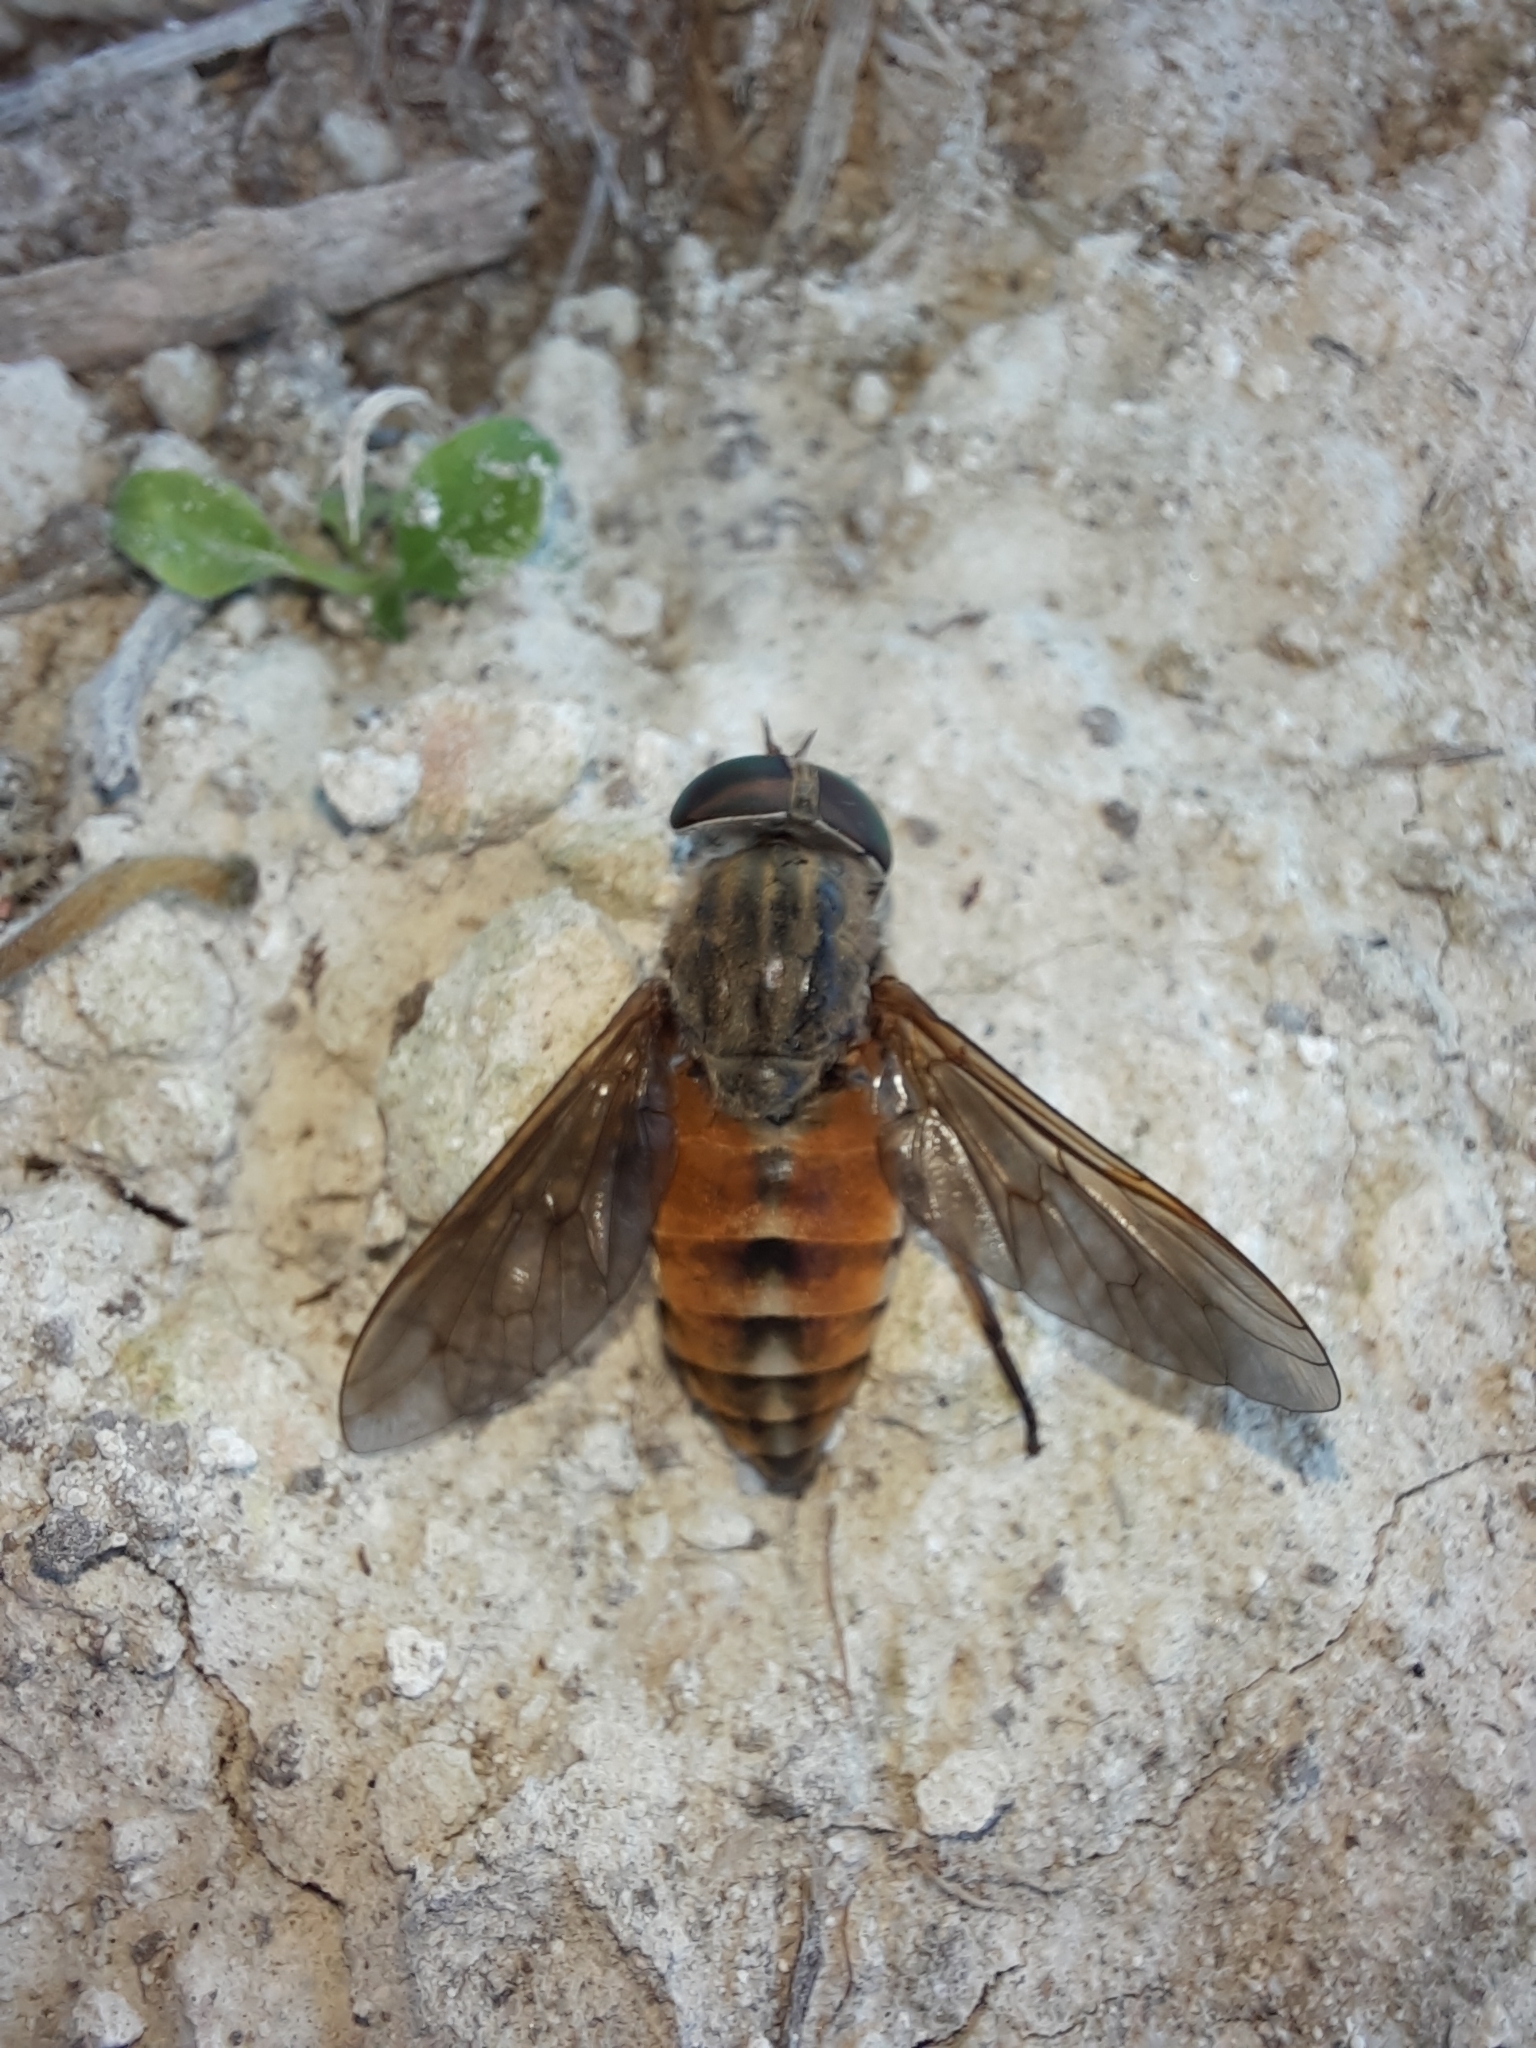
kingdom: Animalia
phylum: Arthropoda
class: Insecta
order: Diptera
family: Tabanidae
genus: Tabanus
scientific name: Tabanus eggeri
